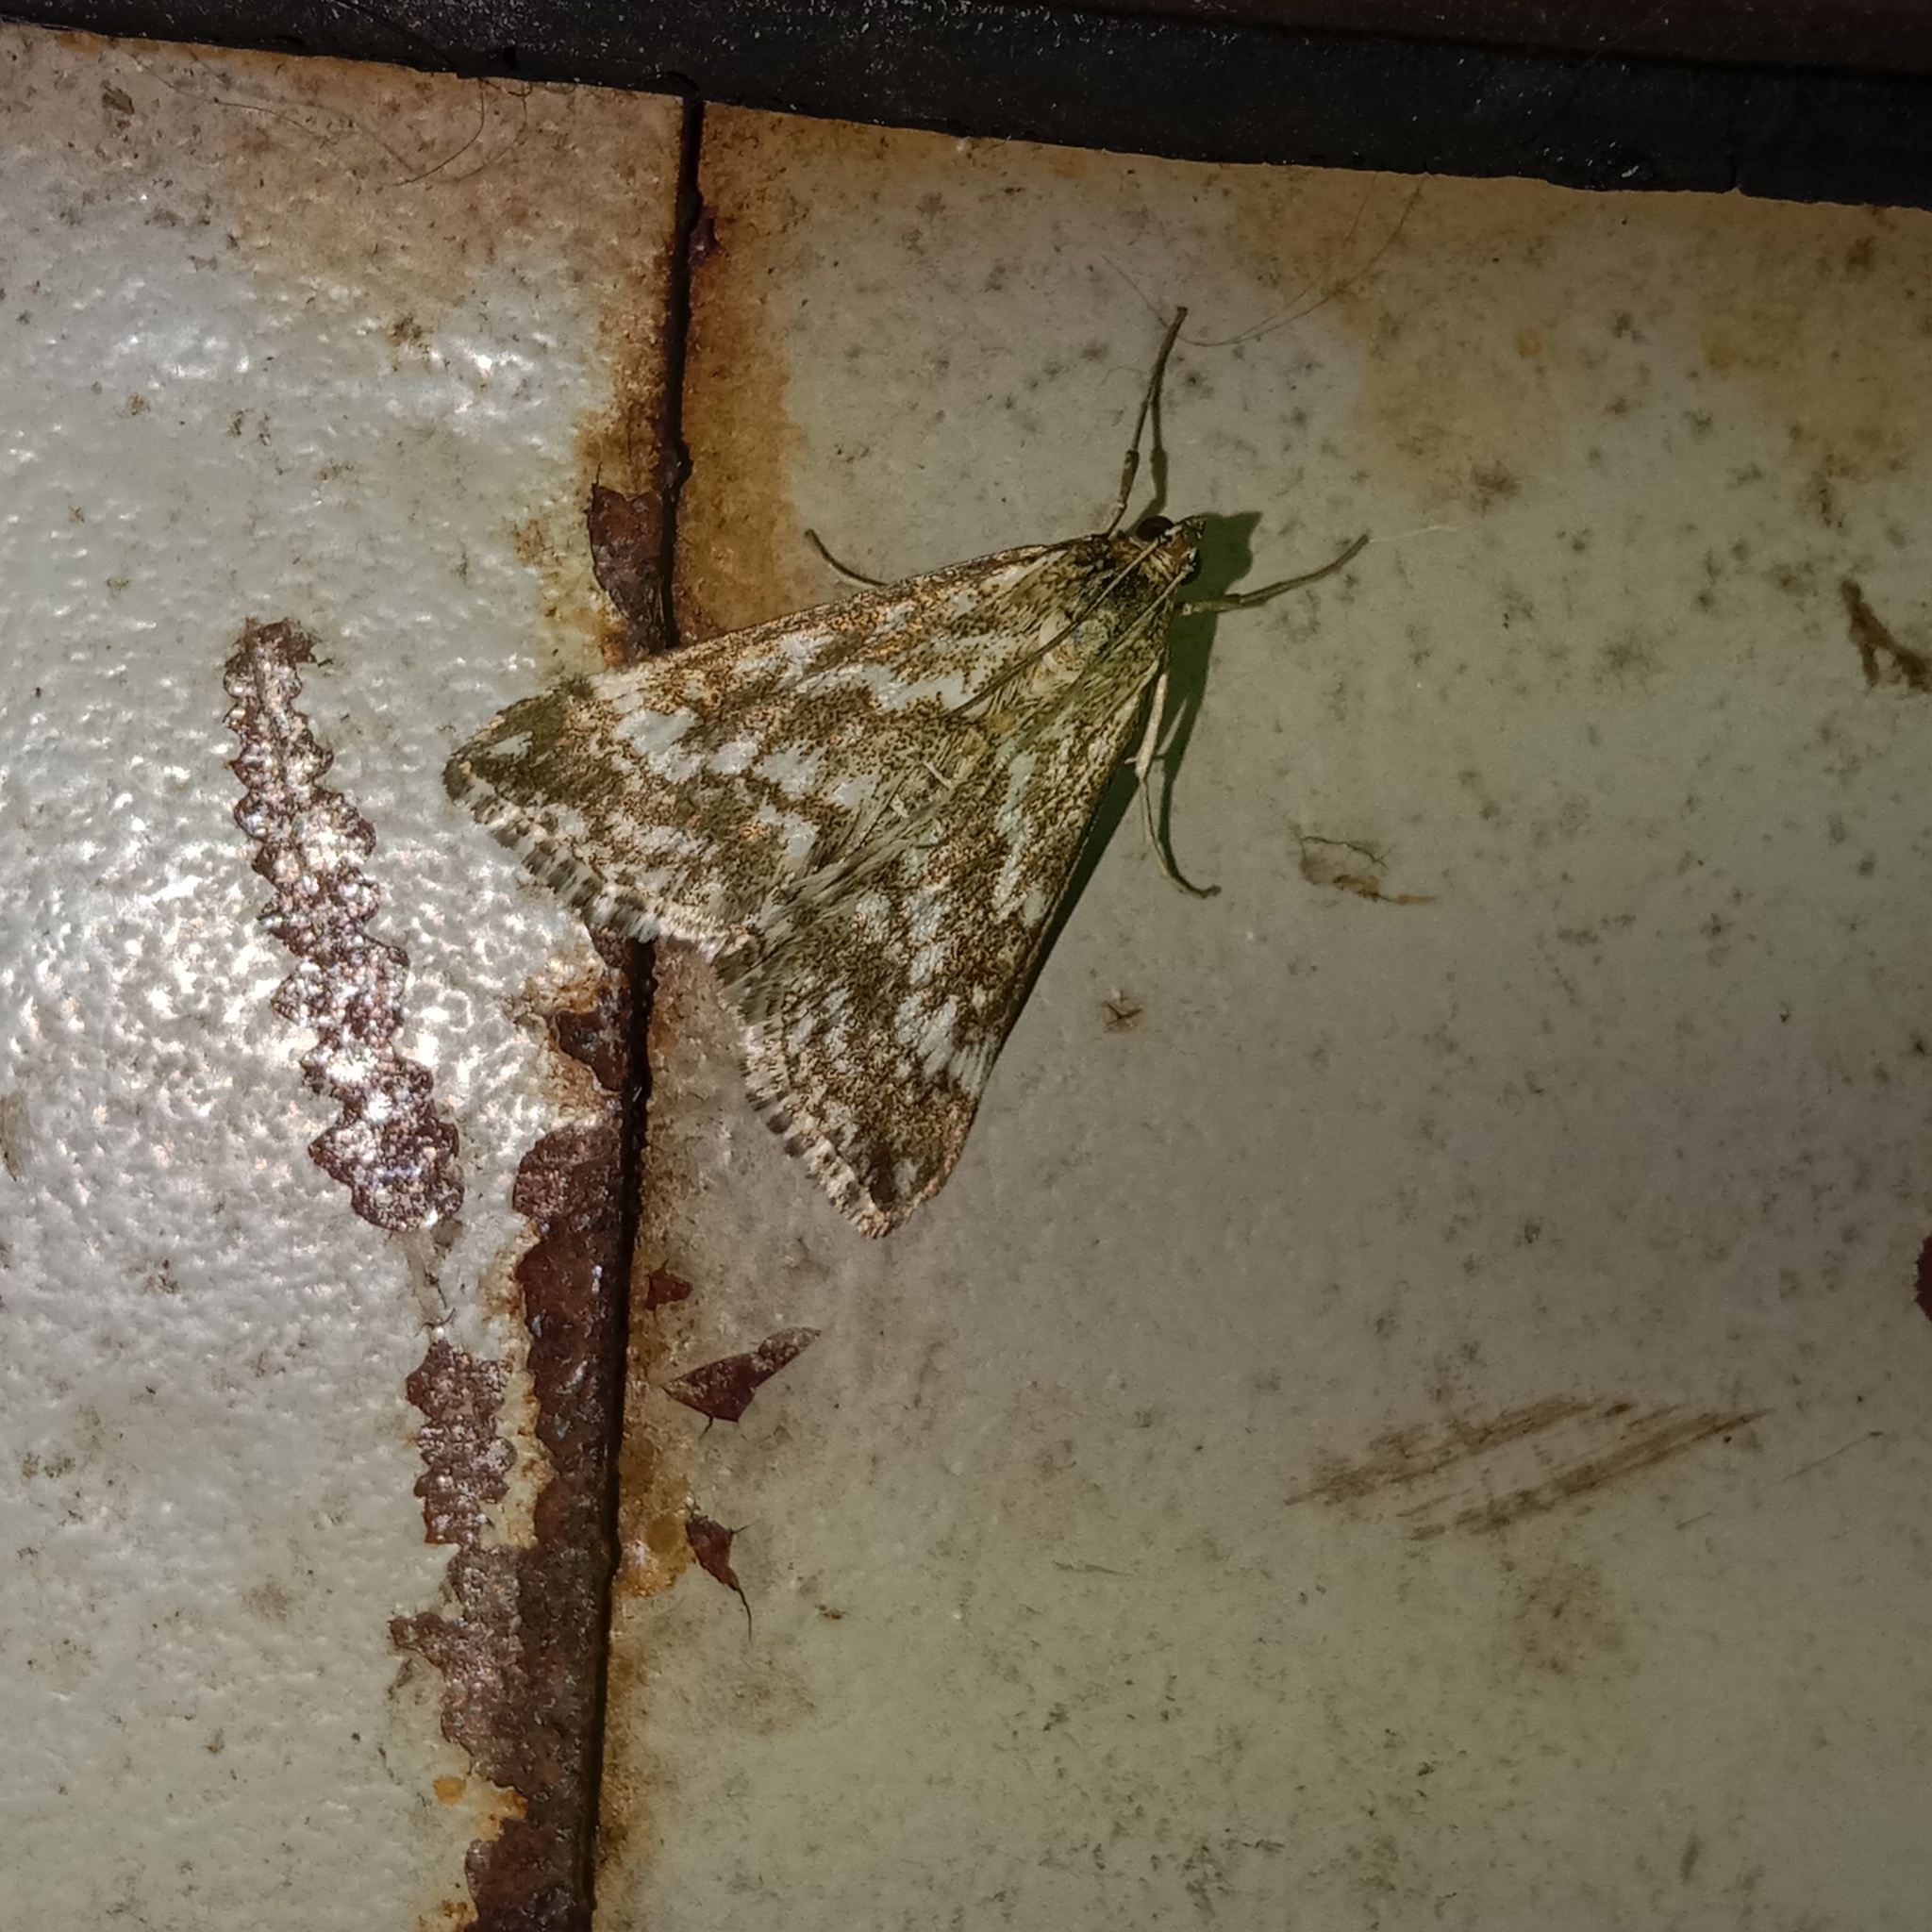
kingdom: Animalia
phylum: Arthropoda
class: Insecta
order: Lepidoptera
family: Crambidae
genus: Evergestis
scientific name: Evergestis frumentalis
